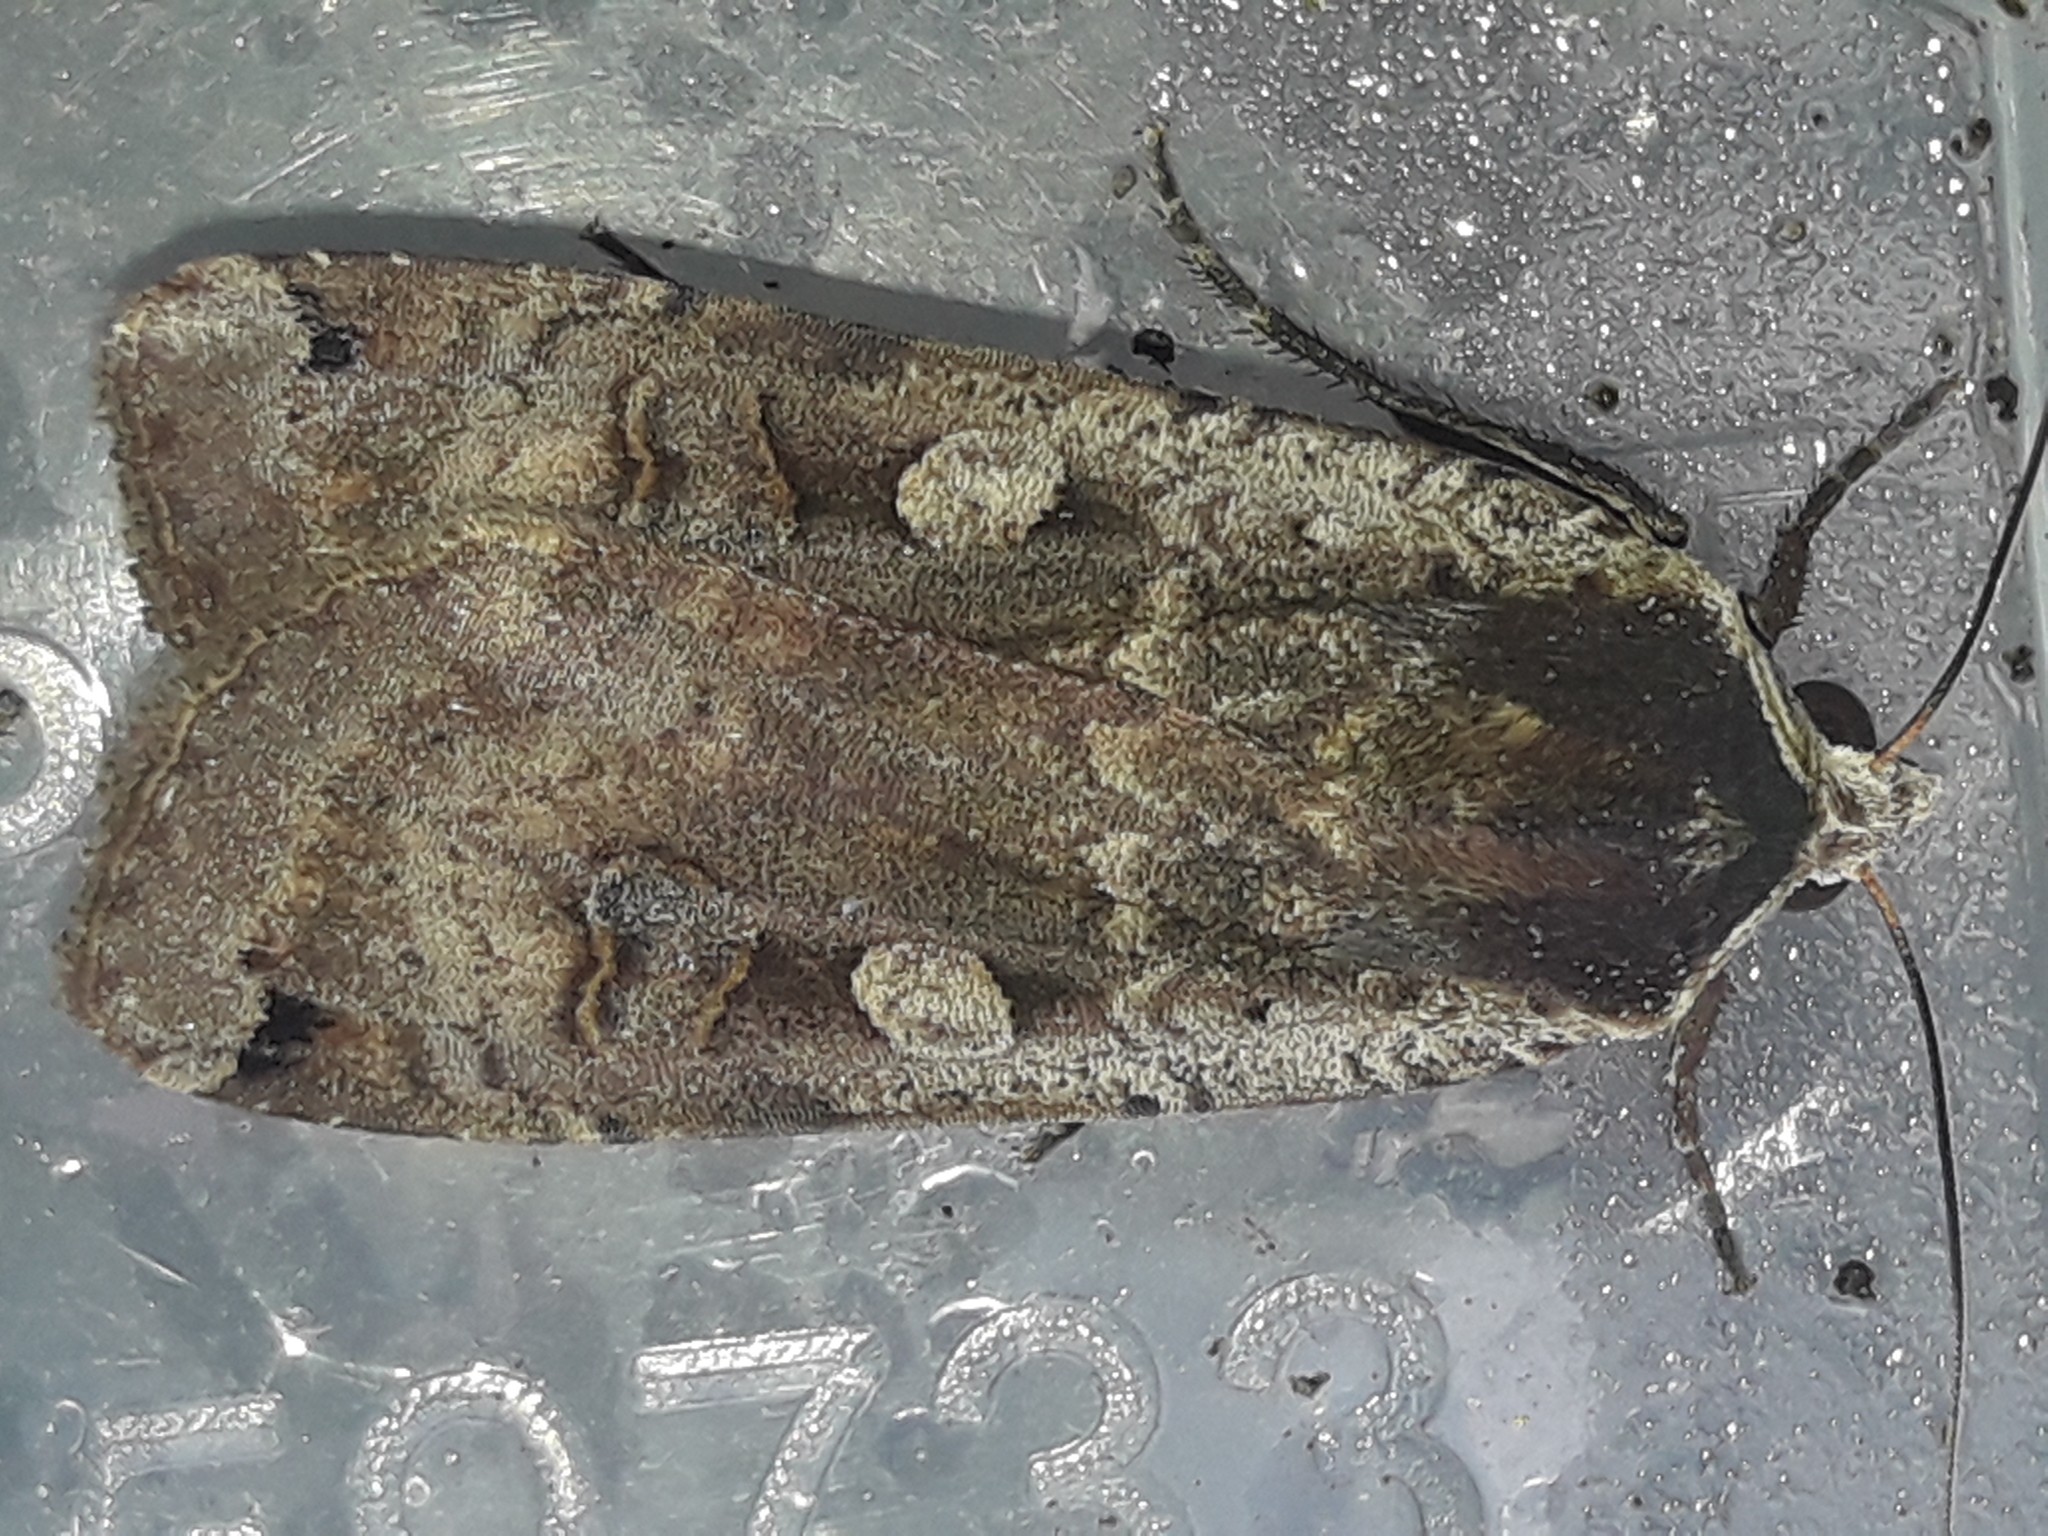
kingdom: Animalia
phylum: Arthropoda
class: Insecta
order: Lepidoptera
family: Noctuidae
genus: Noctua
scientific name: Noctua pronuba
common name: Large yellow underwing
